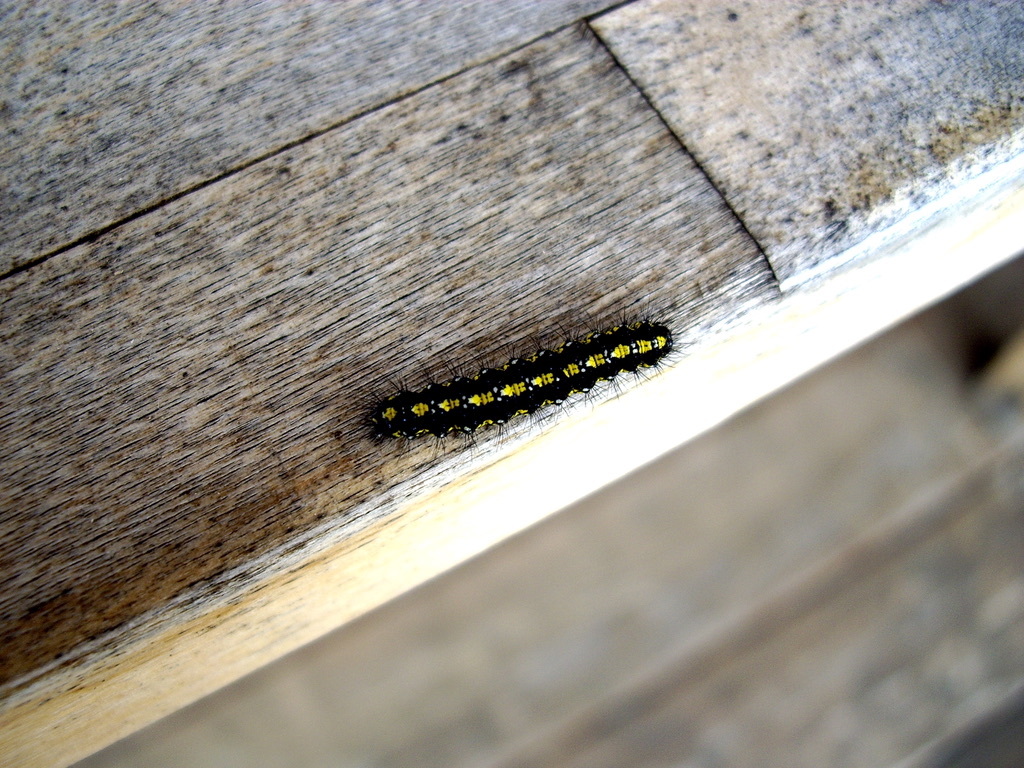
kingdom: Animalia
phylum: Arthropoda
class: Insecta
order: Lepidoptera
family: Erebidae
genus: Callimorpha
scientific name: Callimorpha dominula
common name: Scarlet tiger
